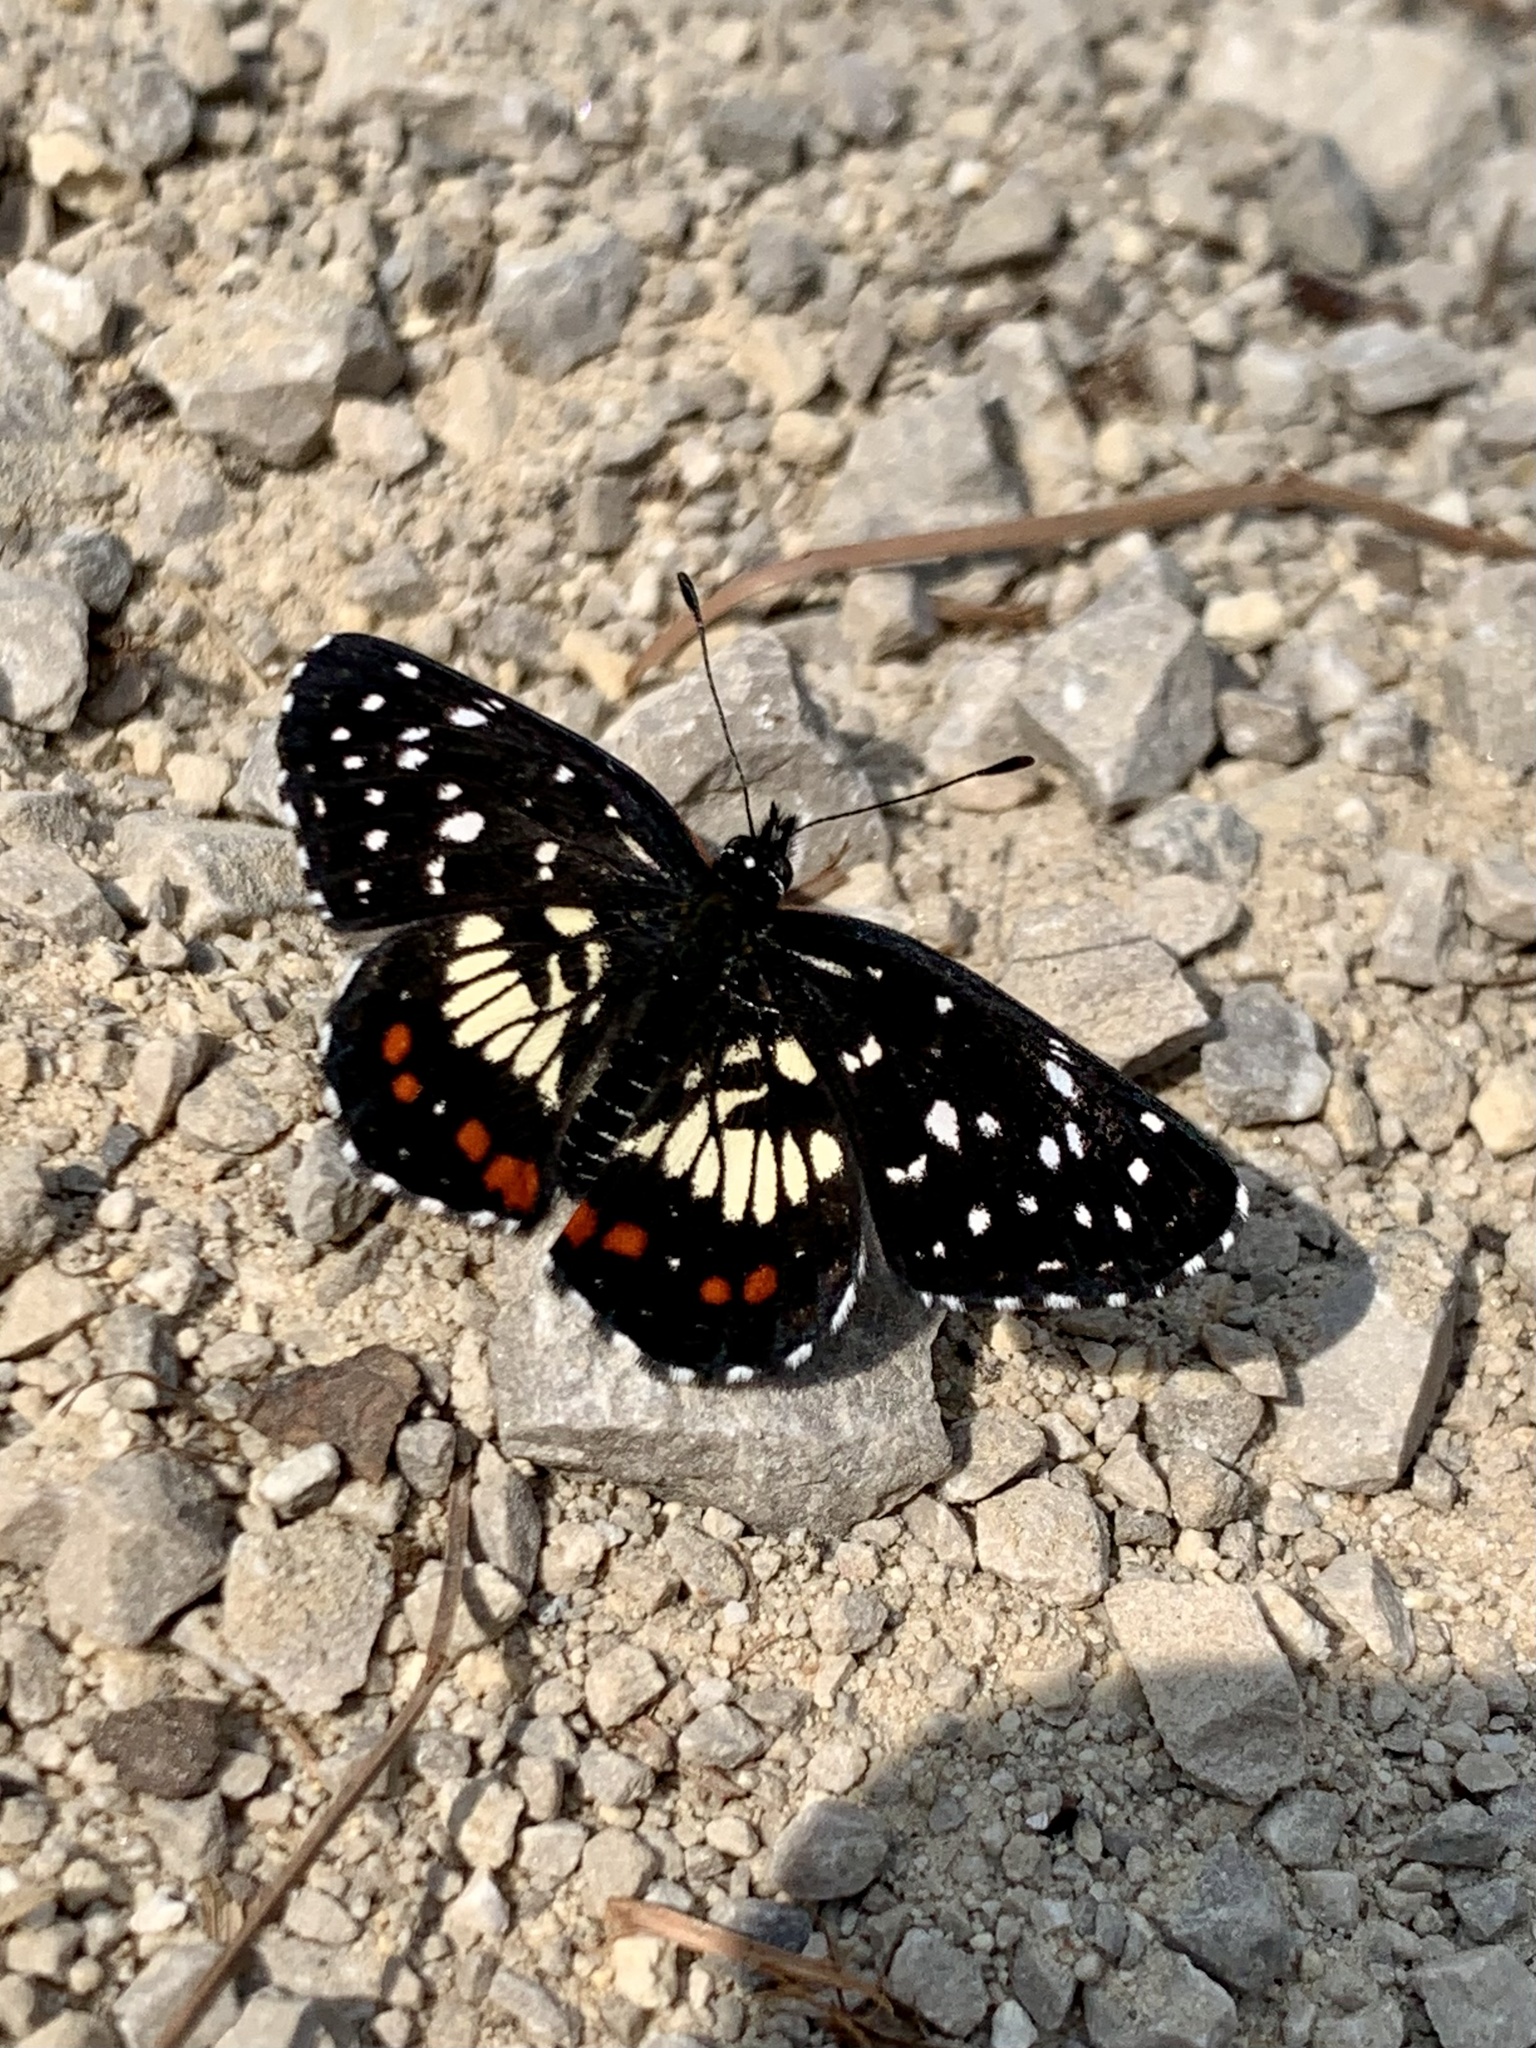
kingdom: Animalia
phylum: Arthropoda
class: Insecta
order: Lepidoptera
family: Nymphalidae
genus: Chlosyne
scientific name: Chlosyne marina
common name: Red-spotted patch
